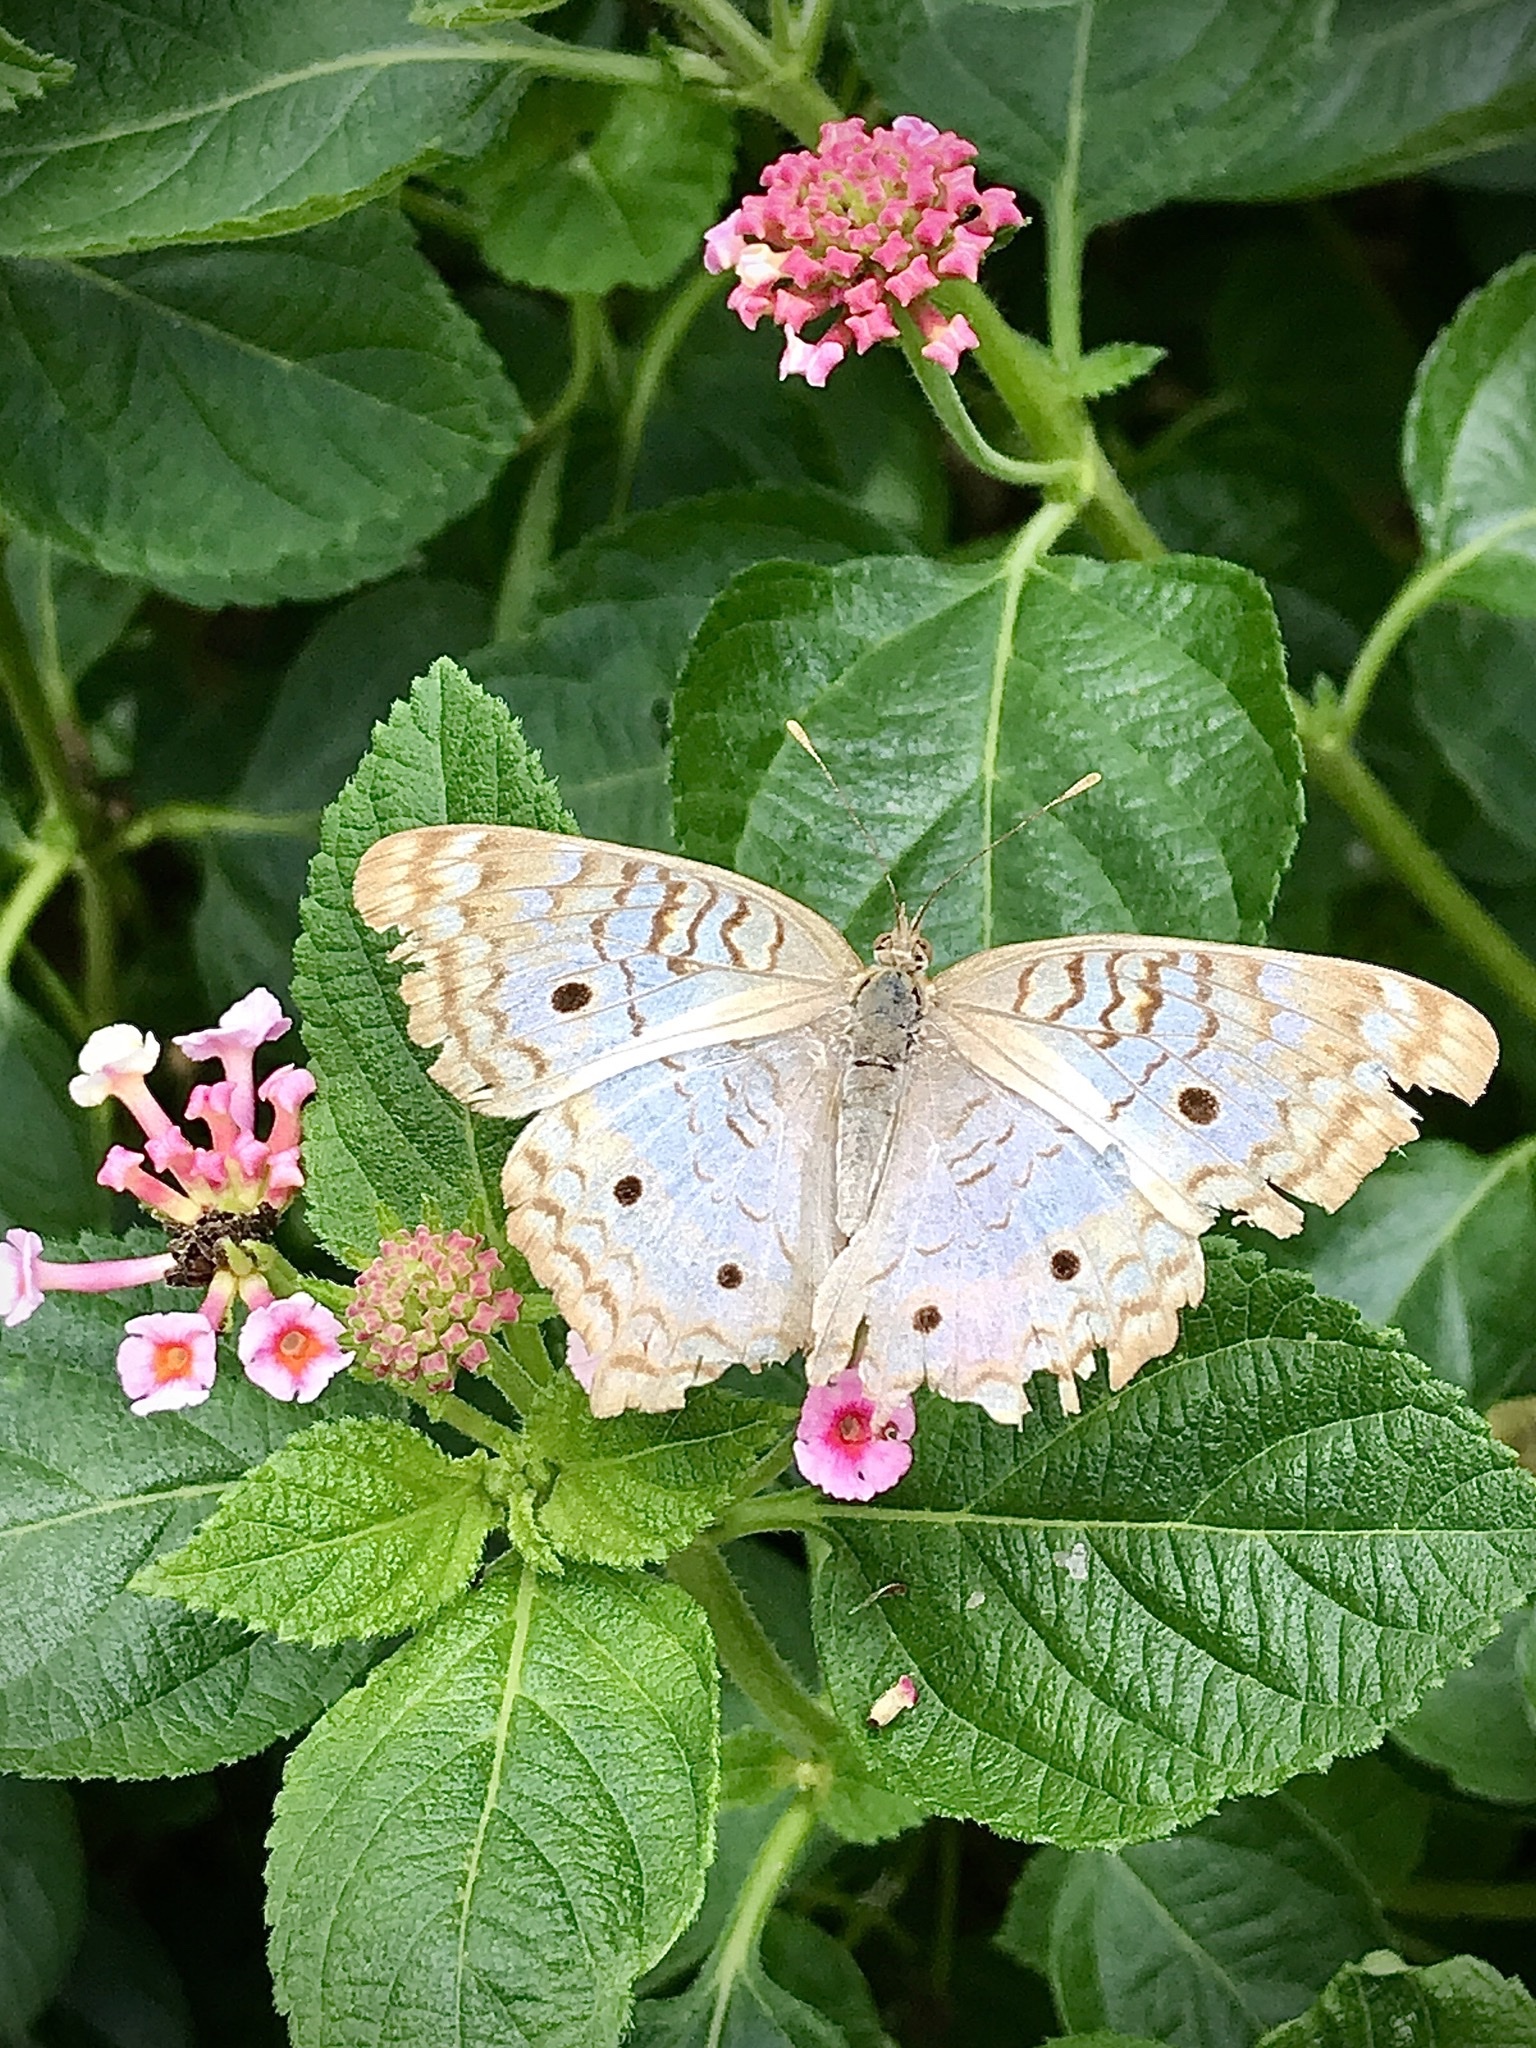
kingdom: Animalia
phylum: Arthropoda
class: Insecta
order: Lepidoptera
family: Nymphalidae
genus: Anartia
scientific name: Anartia jatrophae
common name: White peacock
